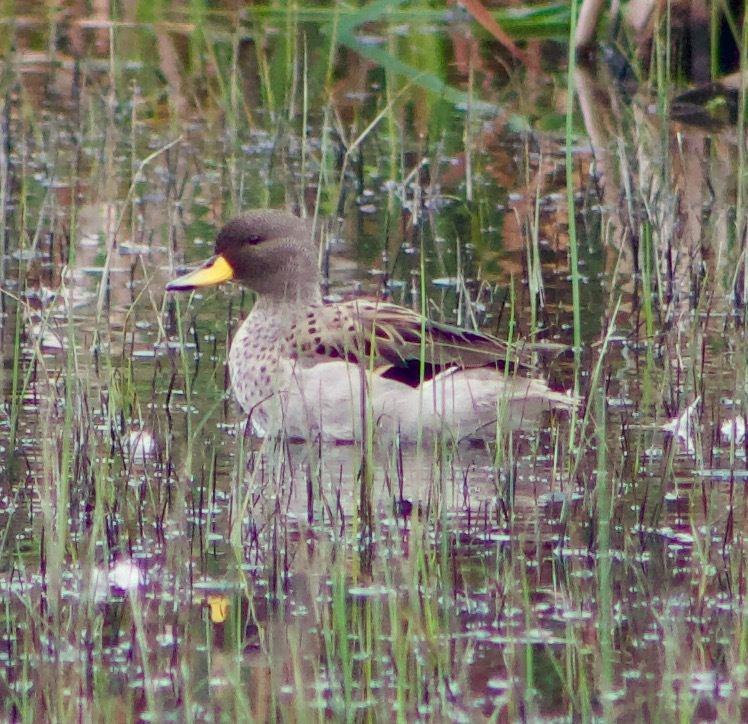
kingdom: Animalia
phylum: Chordata
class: Aves
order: Anseriformes
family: Anatidae
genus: Anas
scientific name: Anas flavirostris
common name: Yellow-billed teal
